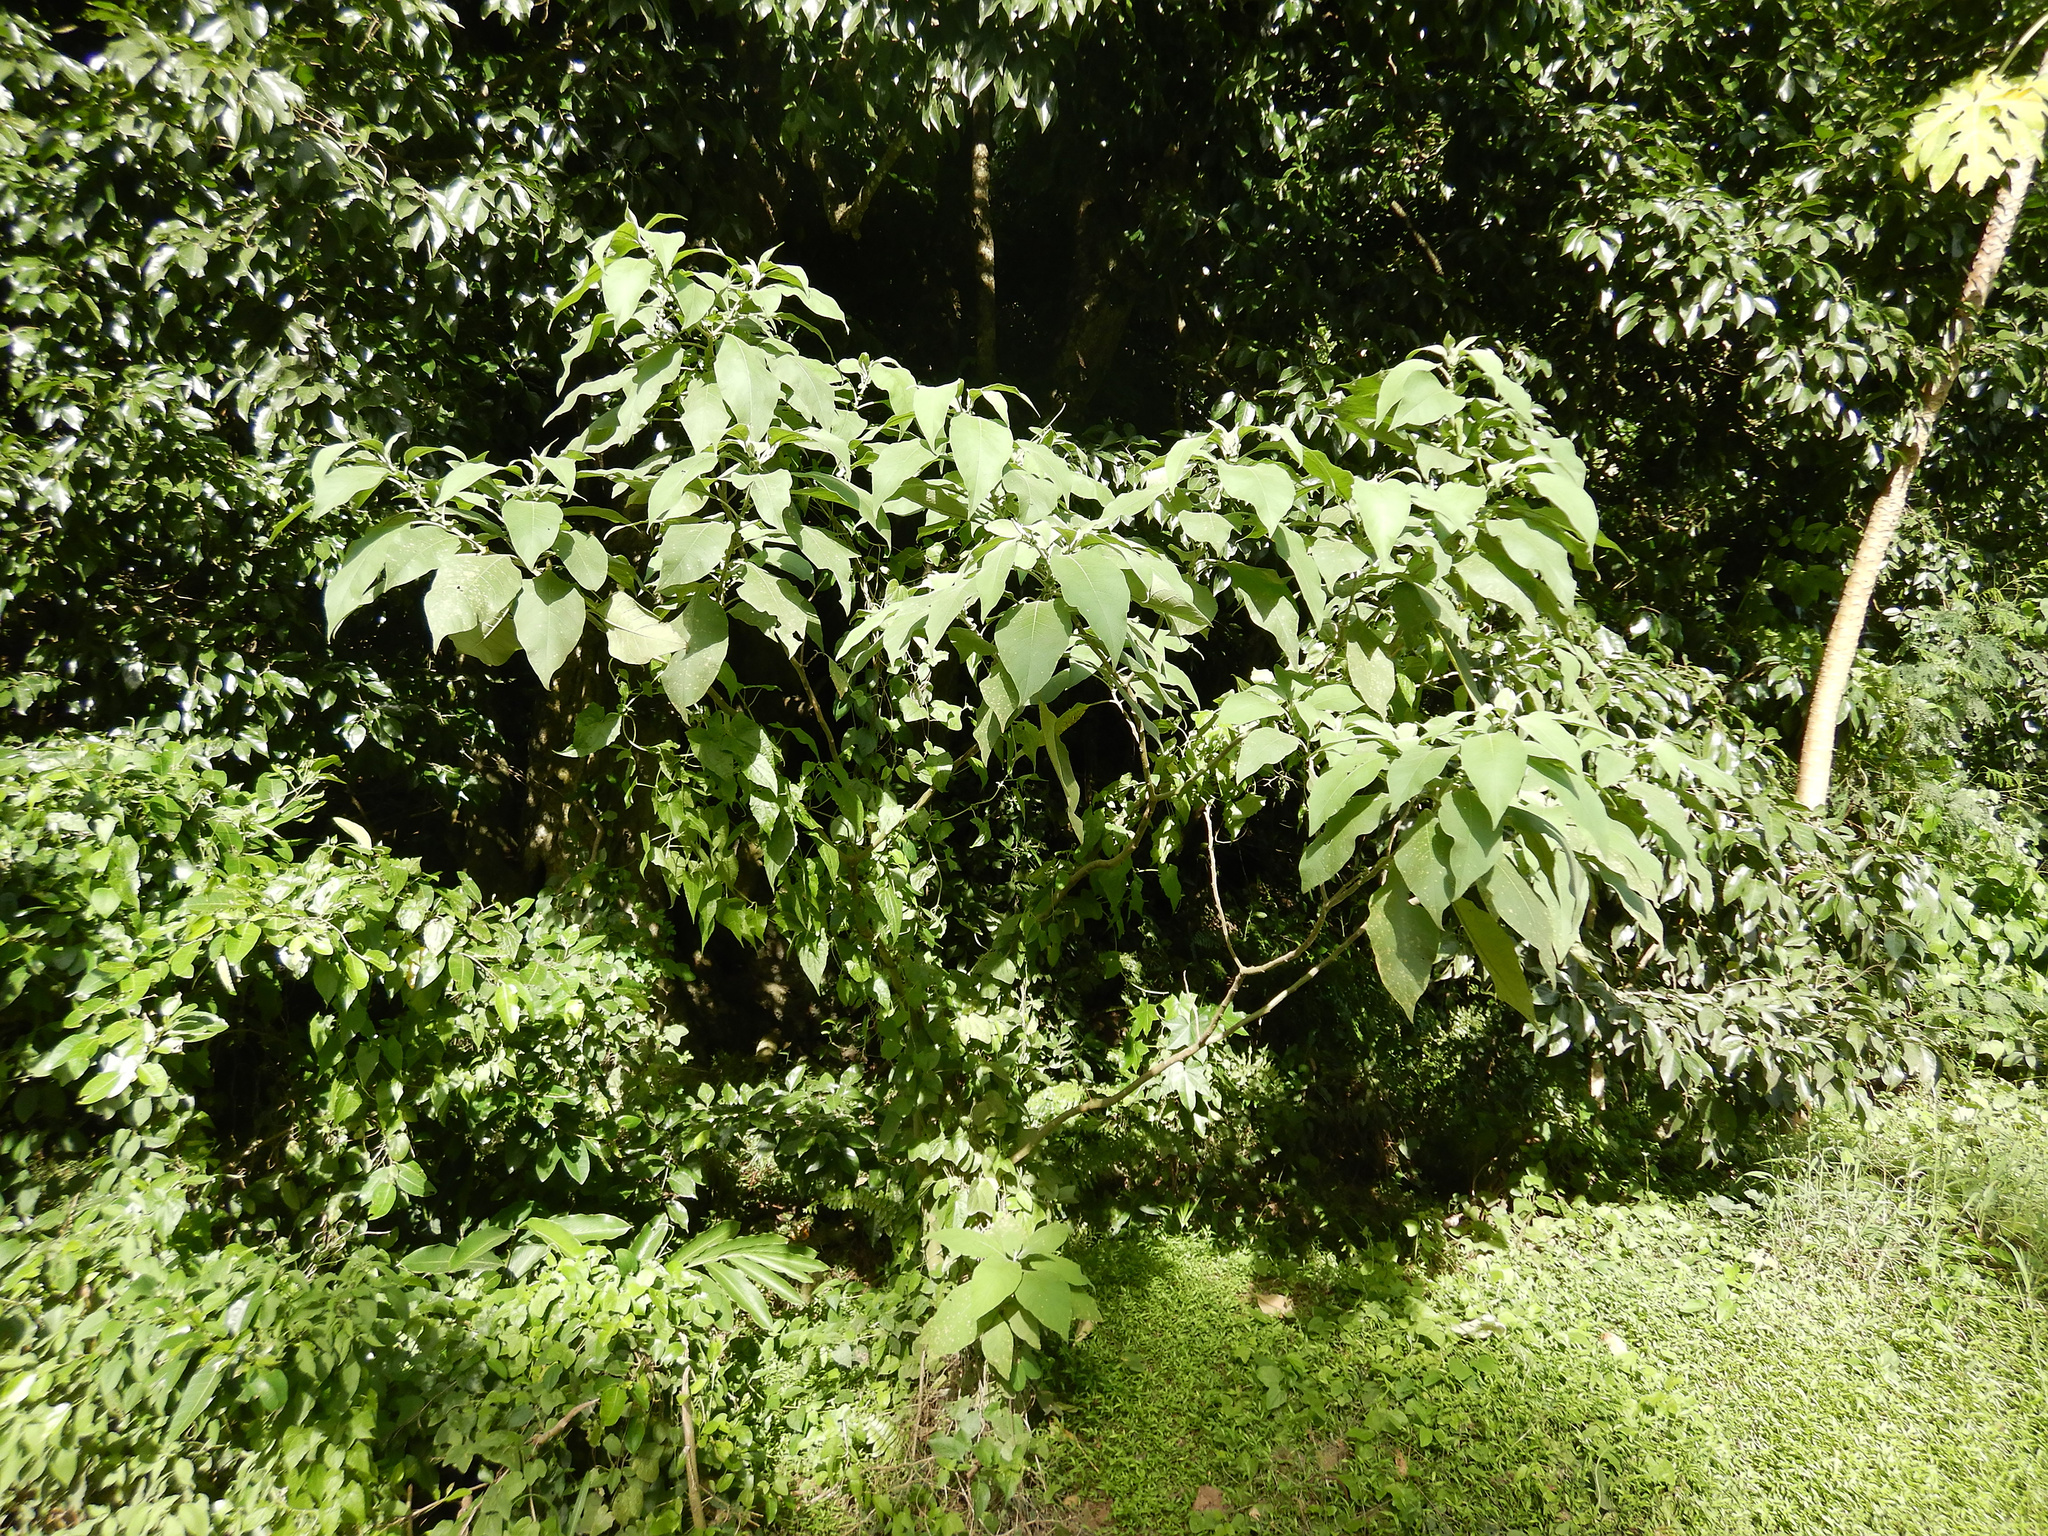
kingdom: Plantae
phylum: Tracheophyta
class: Magnoliopsida
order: Solanales
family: Solanaceae
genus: Solanum
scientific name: Solanum mauritianum
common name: Earleaf nightshade
